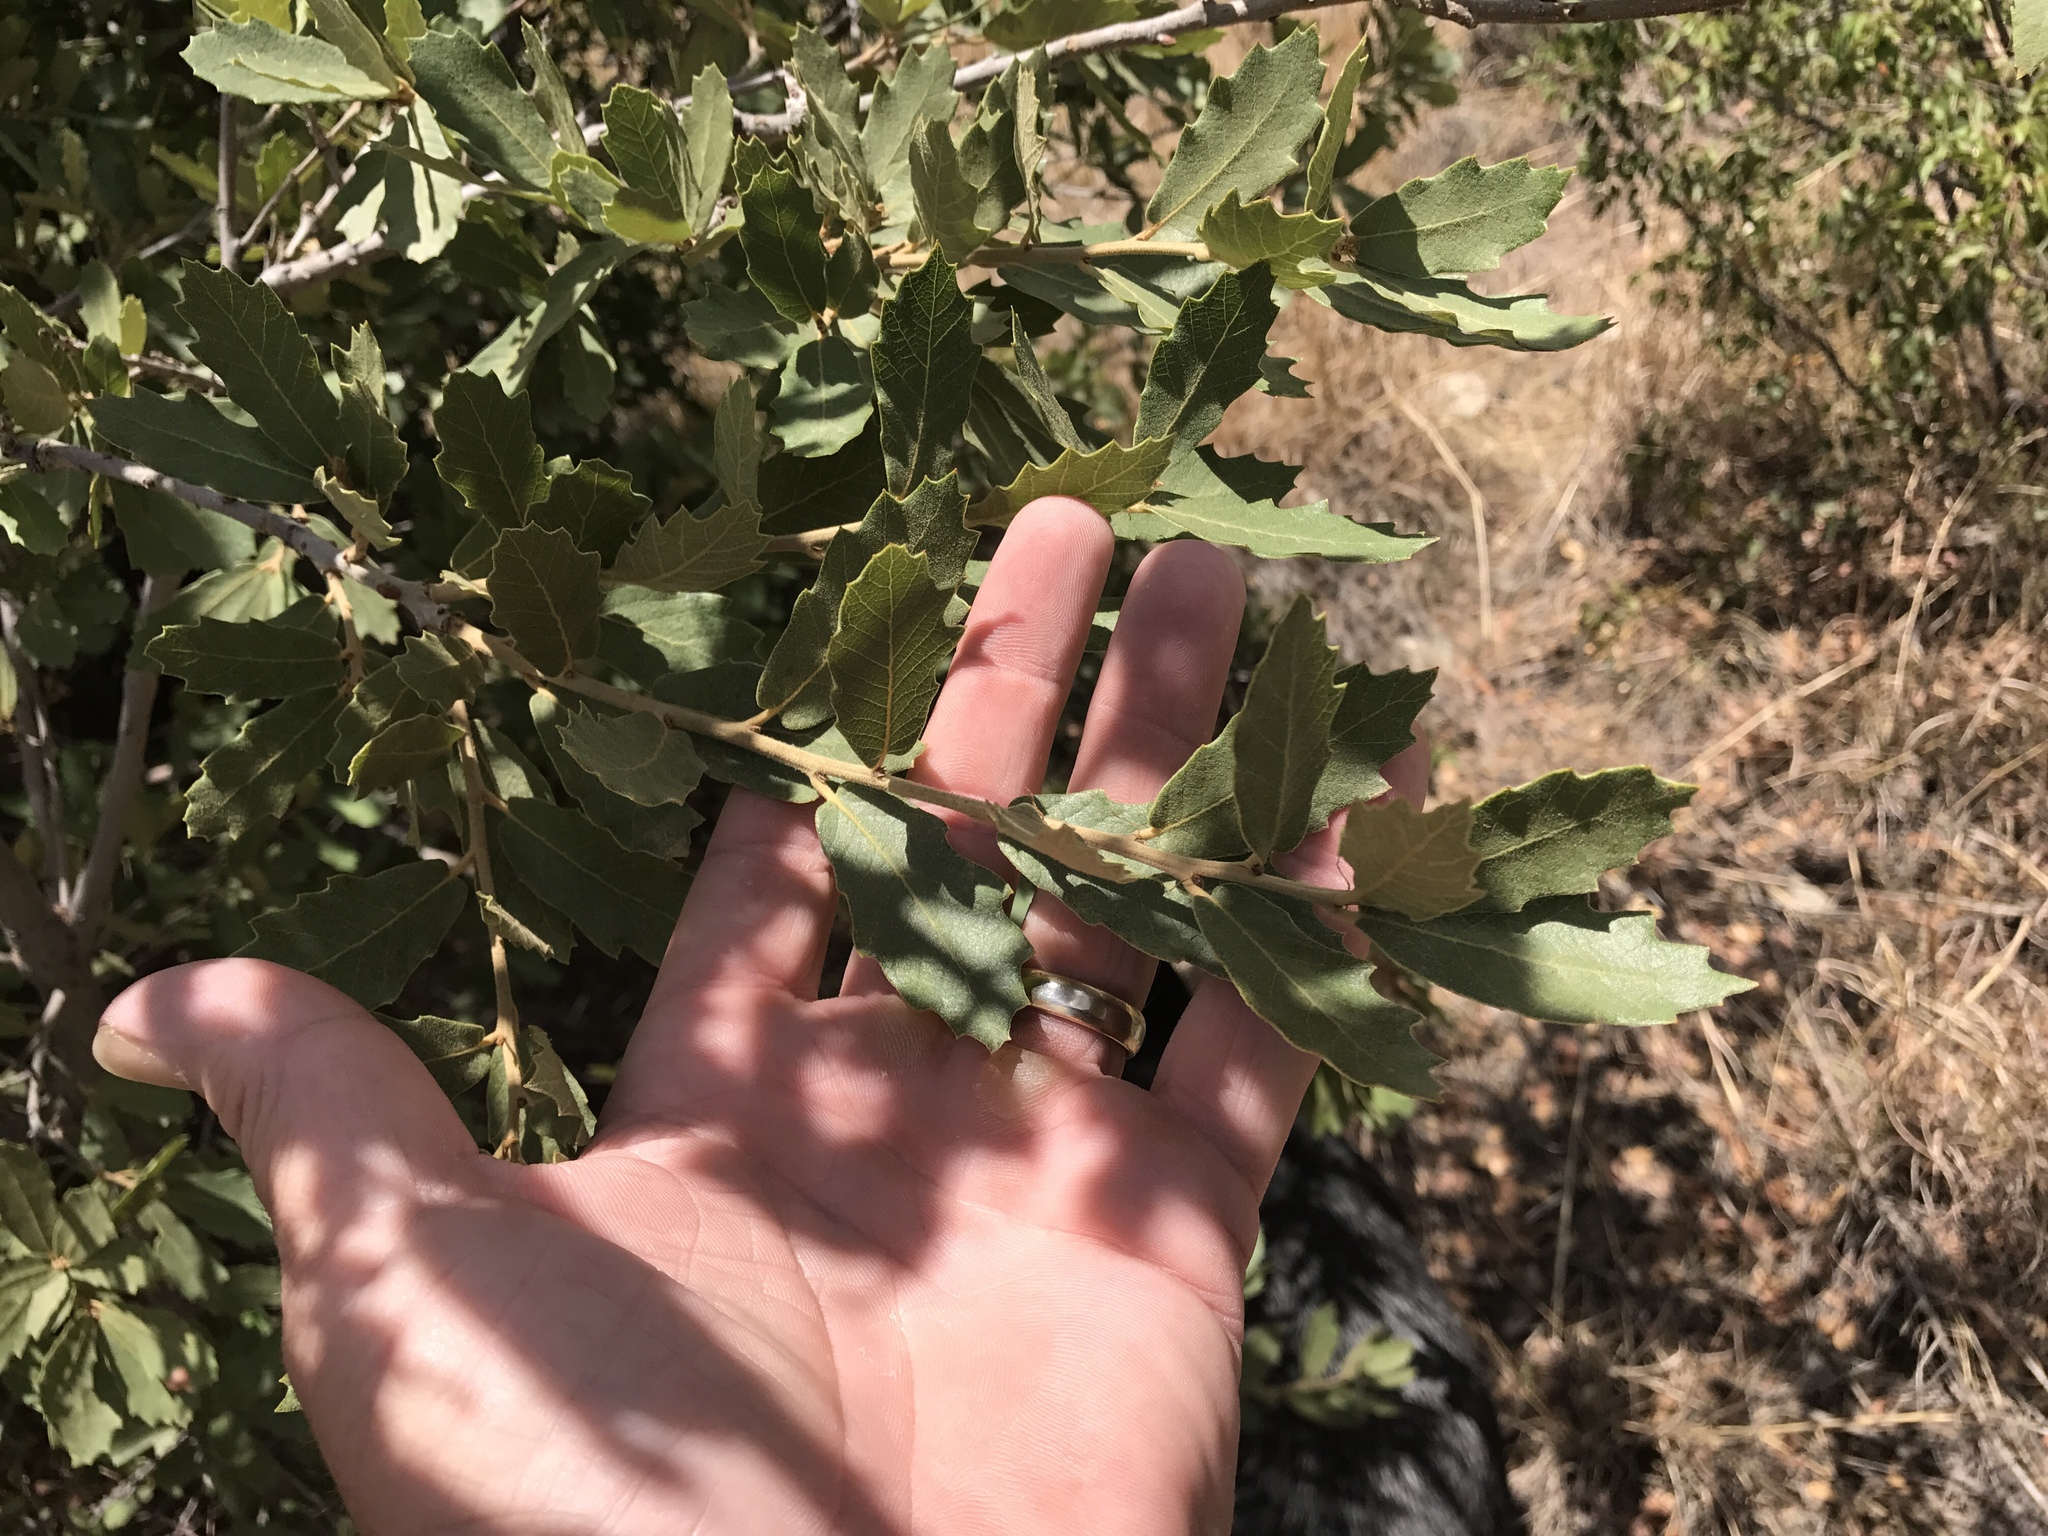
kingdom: Plantae
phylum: Tracheophyta
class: Magnoliopsida
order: Fagales
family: Fagaceae
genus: Quercus
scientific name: Quercus emoryi
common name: Emory oak
